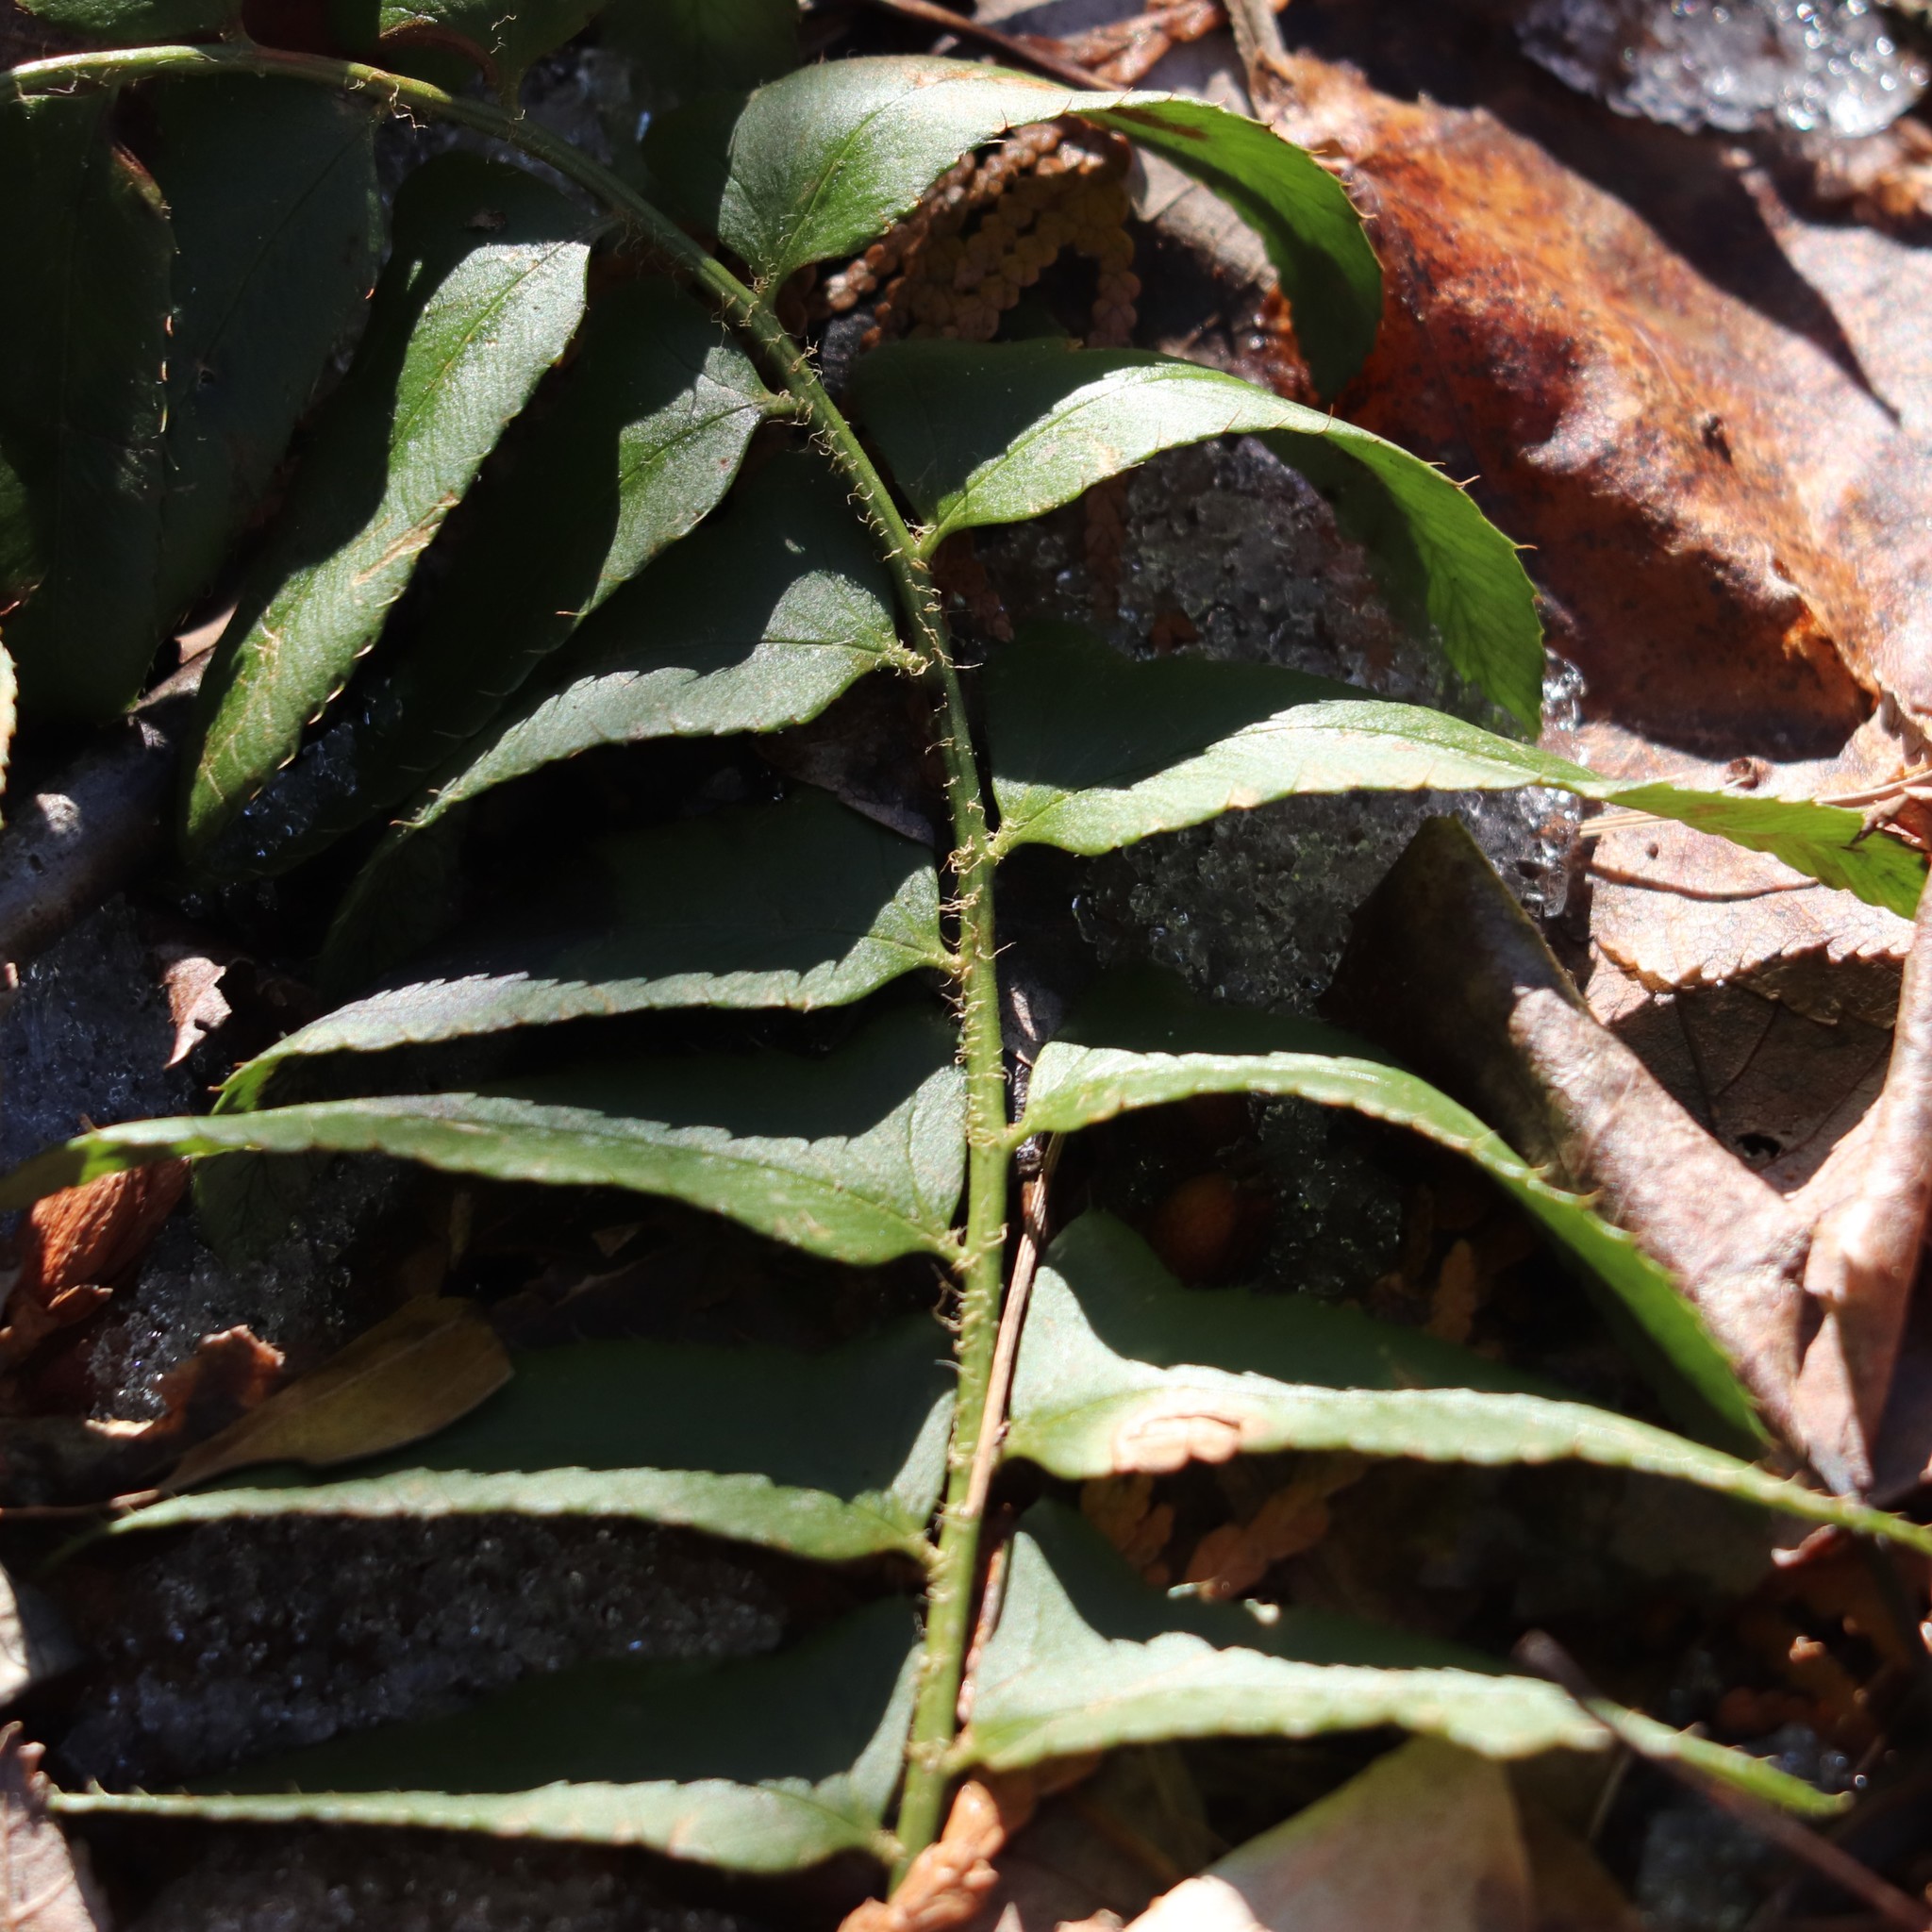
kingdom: Plantae
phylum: Tracheophyta
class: Polypodiopsida
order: Polypodiales
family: Dryopteridaceae
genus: Polystichum
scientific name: Polystichum acrostichoides
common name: Christmas fern
